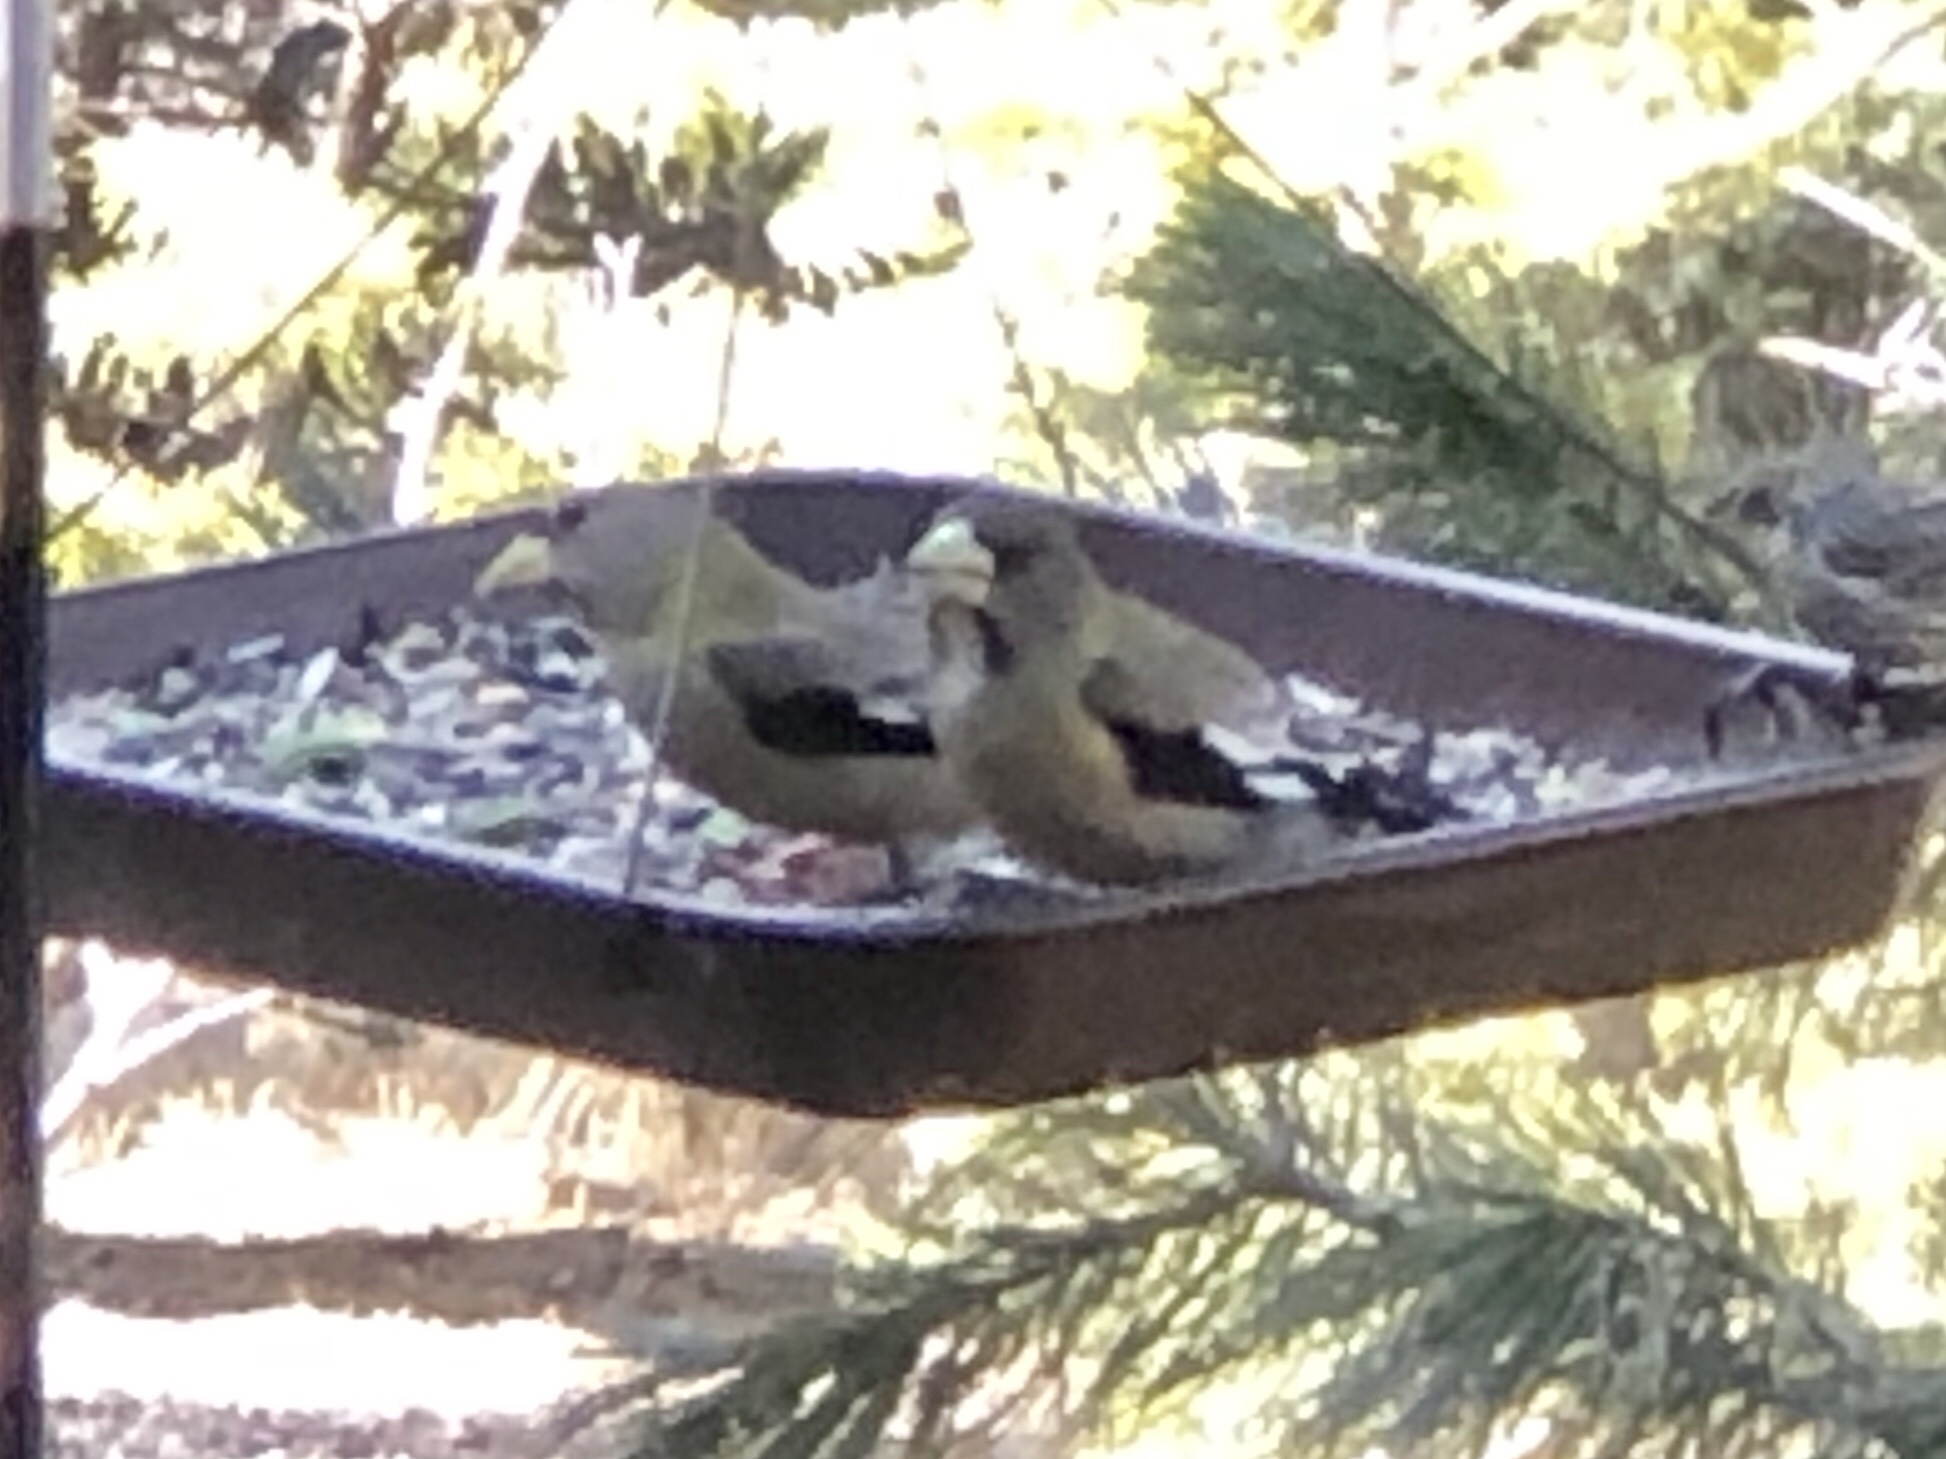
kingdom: Animalia
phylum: Chordata
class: Aves
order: Passeriformes
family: Fringillidae
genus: Hesperiphona
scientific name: Hesperiphona vespertina
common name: Evening grosbeak
